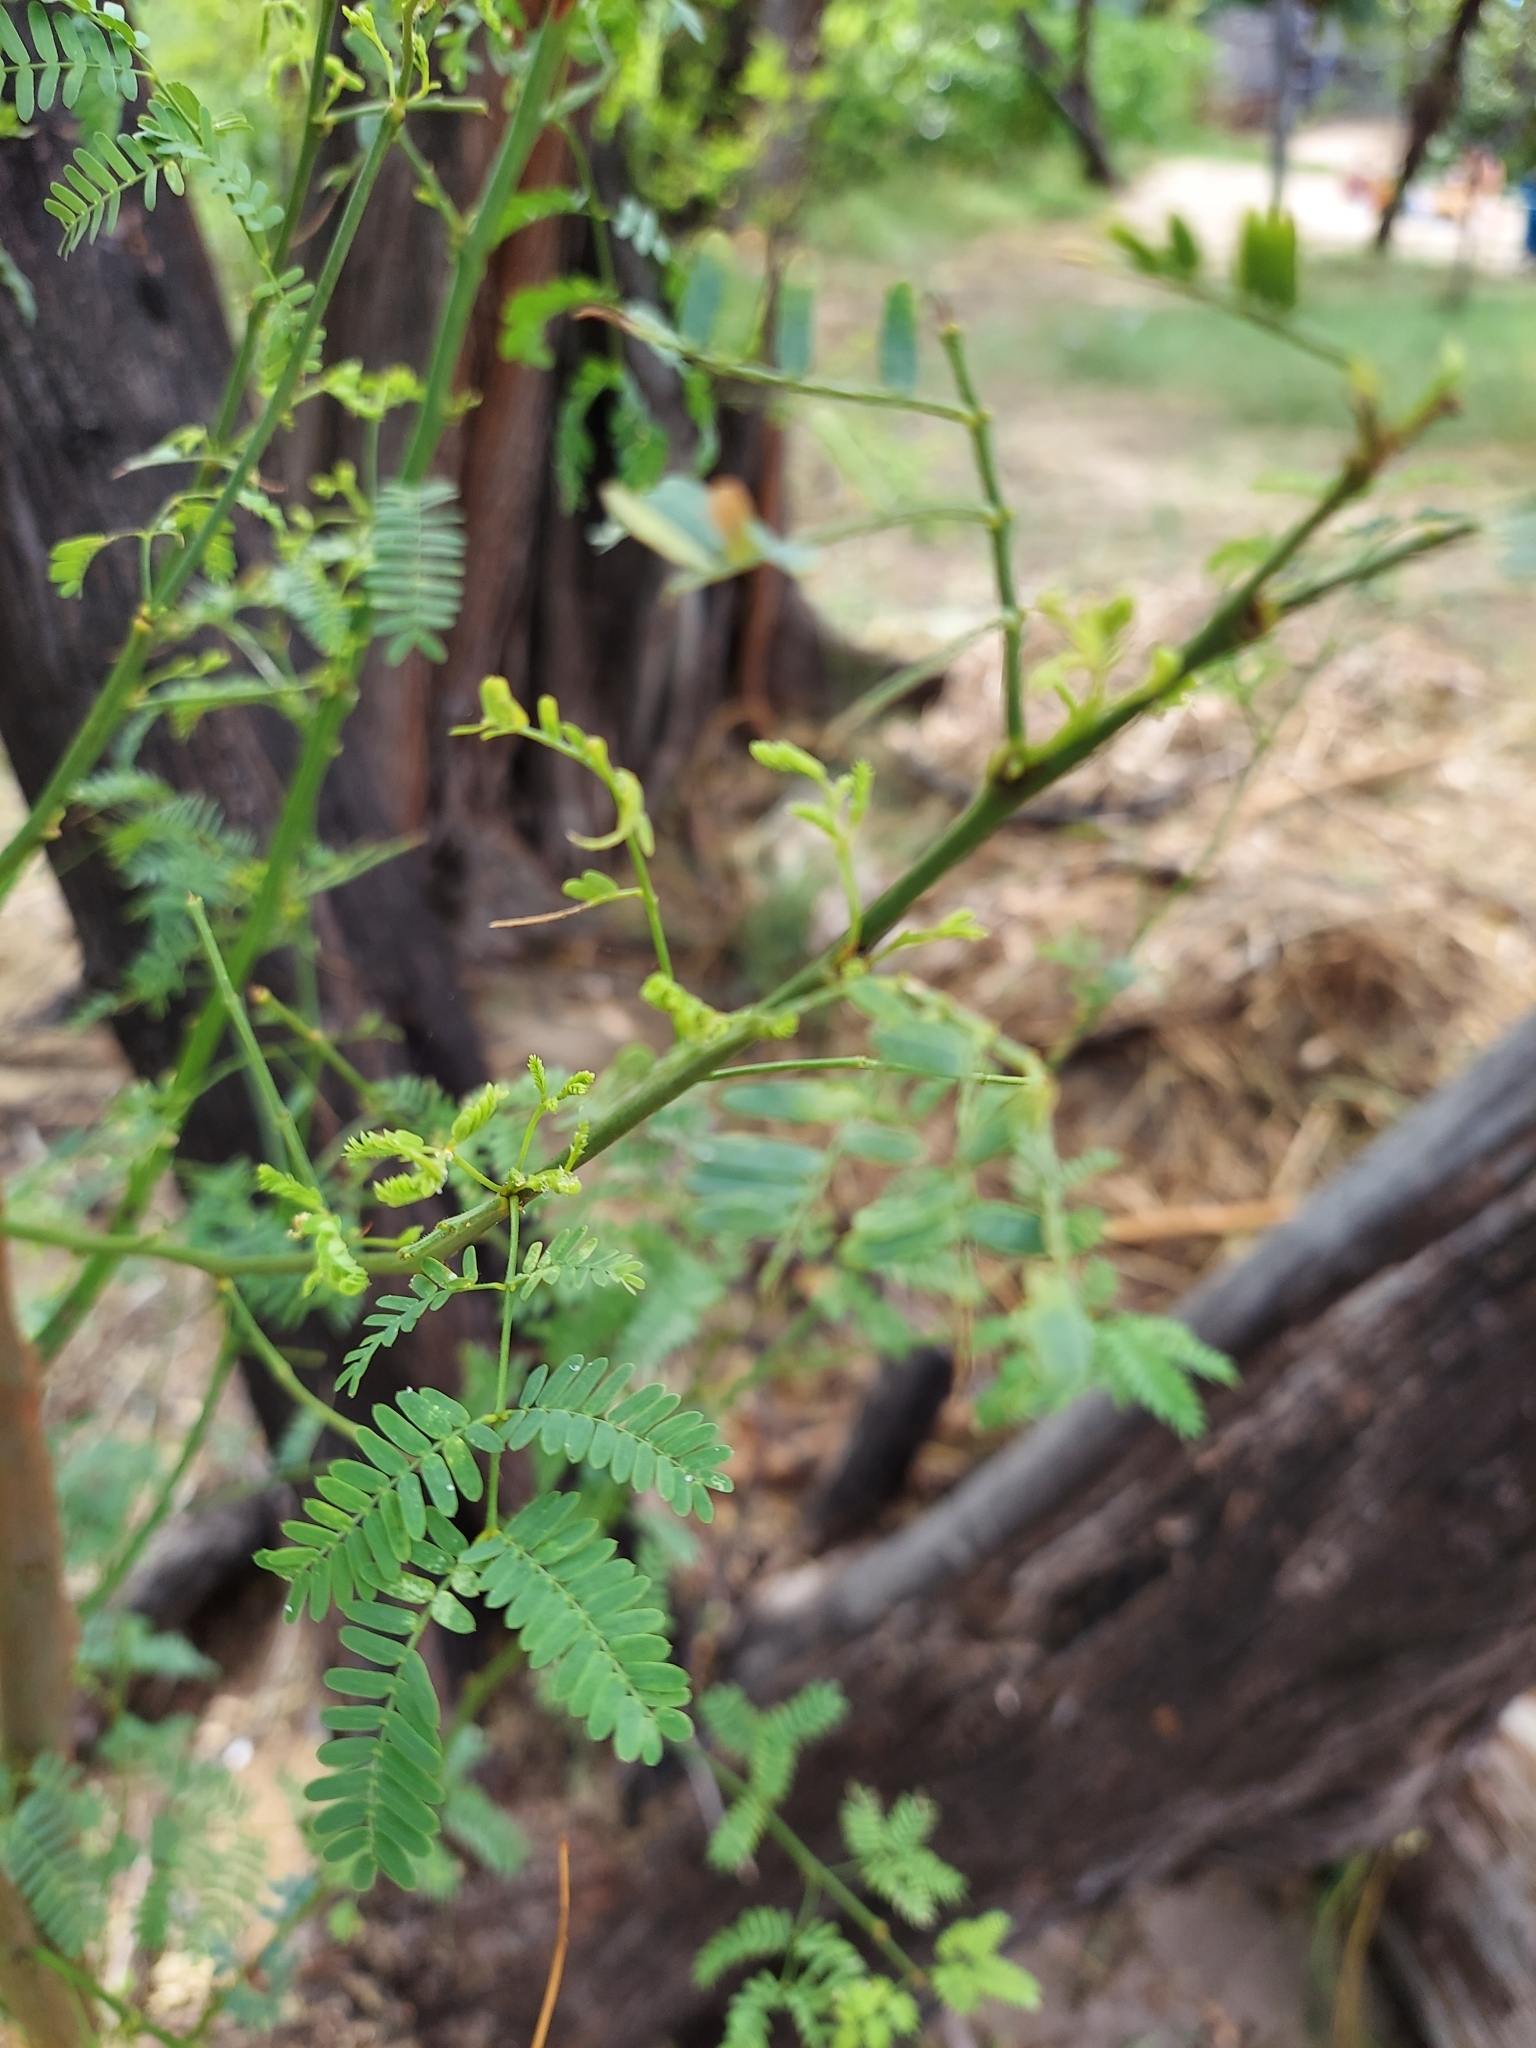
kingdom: Plantae
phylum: Tracheophyta
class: Magnoliopsida
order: Fabales
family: Fabaceae
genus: Prosopis
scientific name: Prosopis pallida
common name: Mesquite
